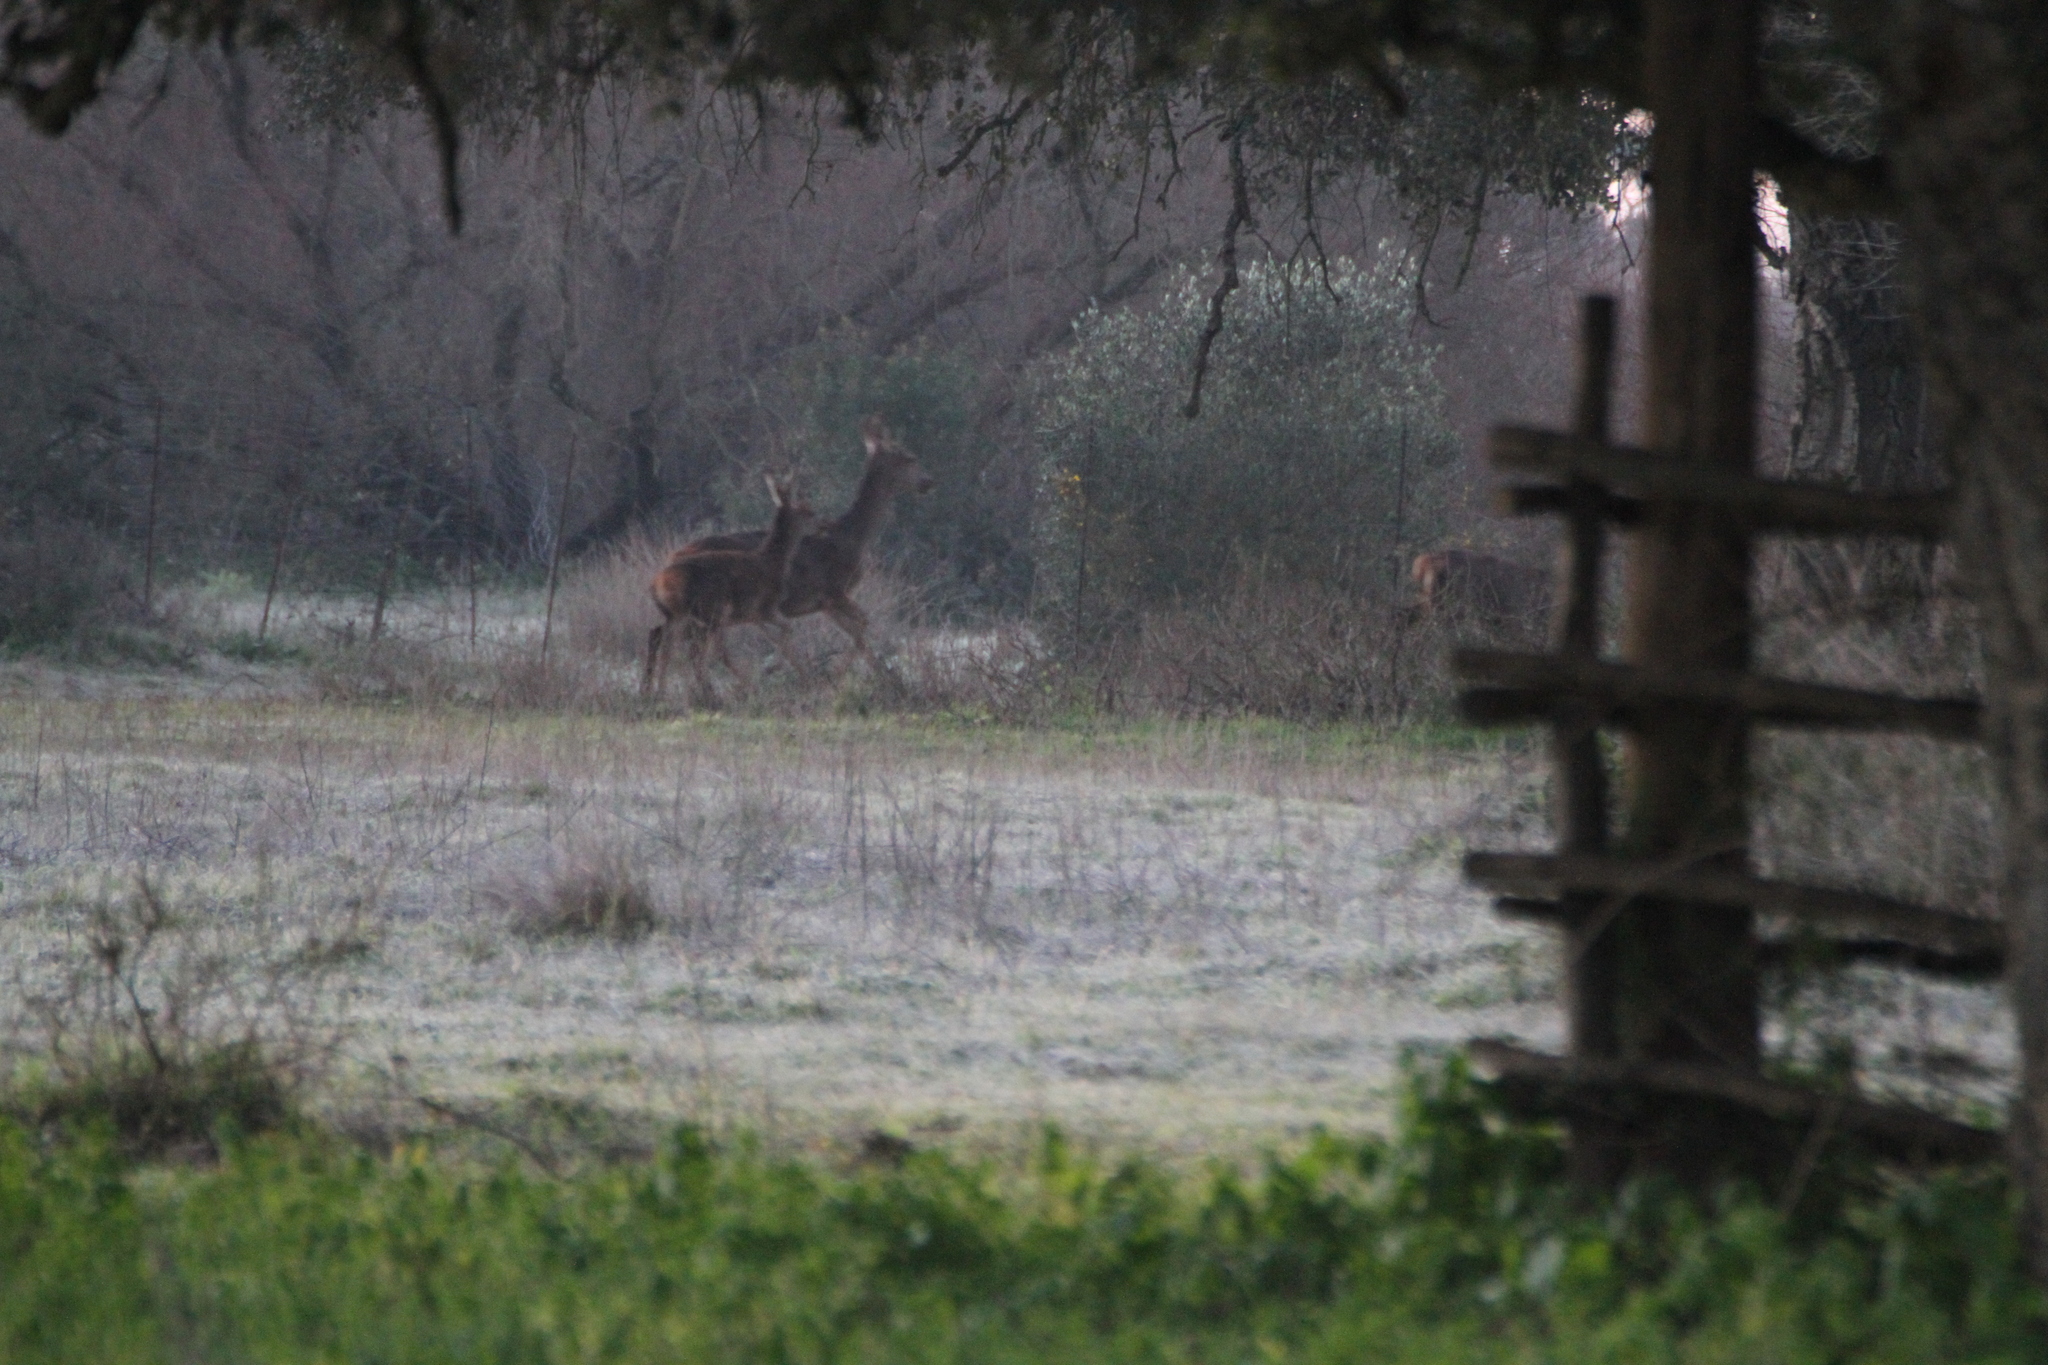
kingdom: Animalia
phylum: Chordata
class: Mammalia
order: Artiodactyla
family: Cervidae
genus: Cervus
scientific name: Cervus elaphus
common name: Red deer
